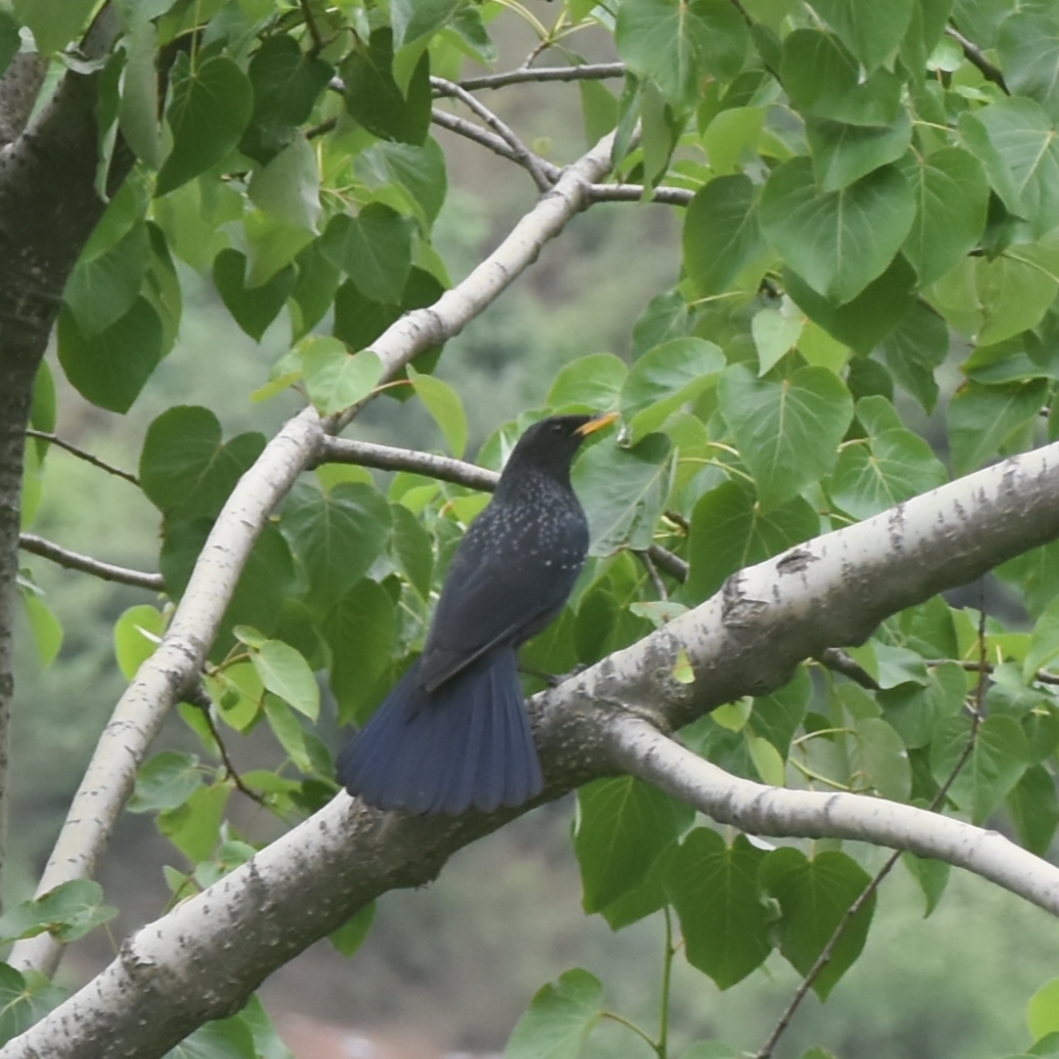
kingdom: Animalia
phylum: Chordata
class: Aves
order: Passeriformes
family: Muscicapidae
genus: Myophonus
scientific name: Myophonus caeruleus
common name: Blue whistling-thrush
